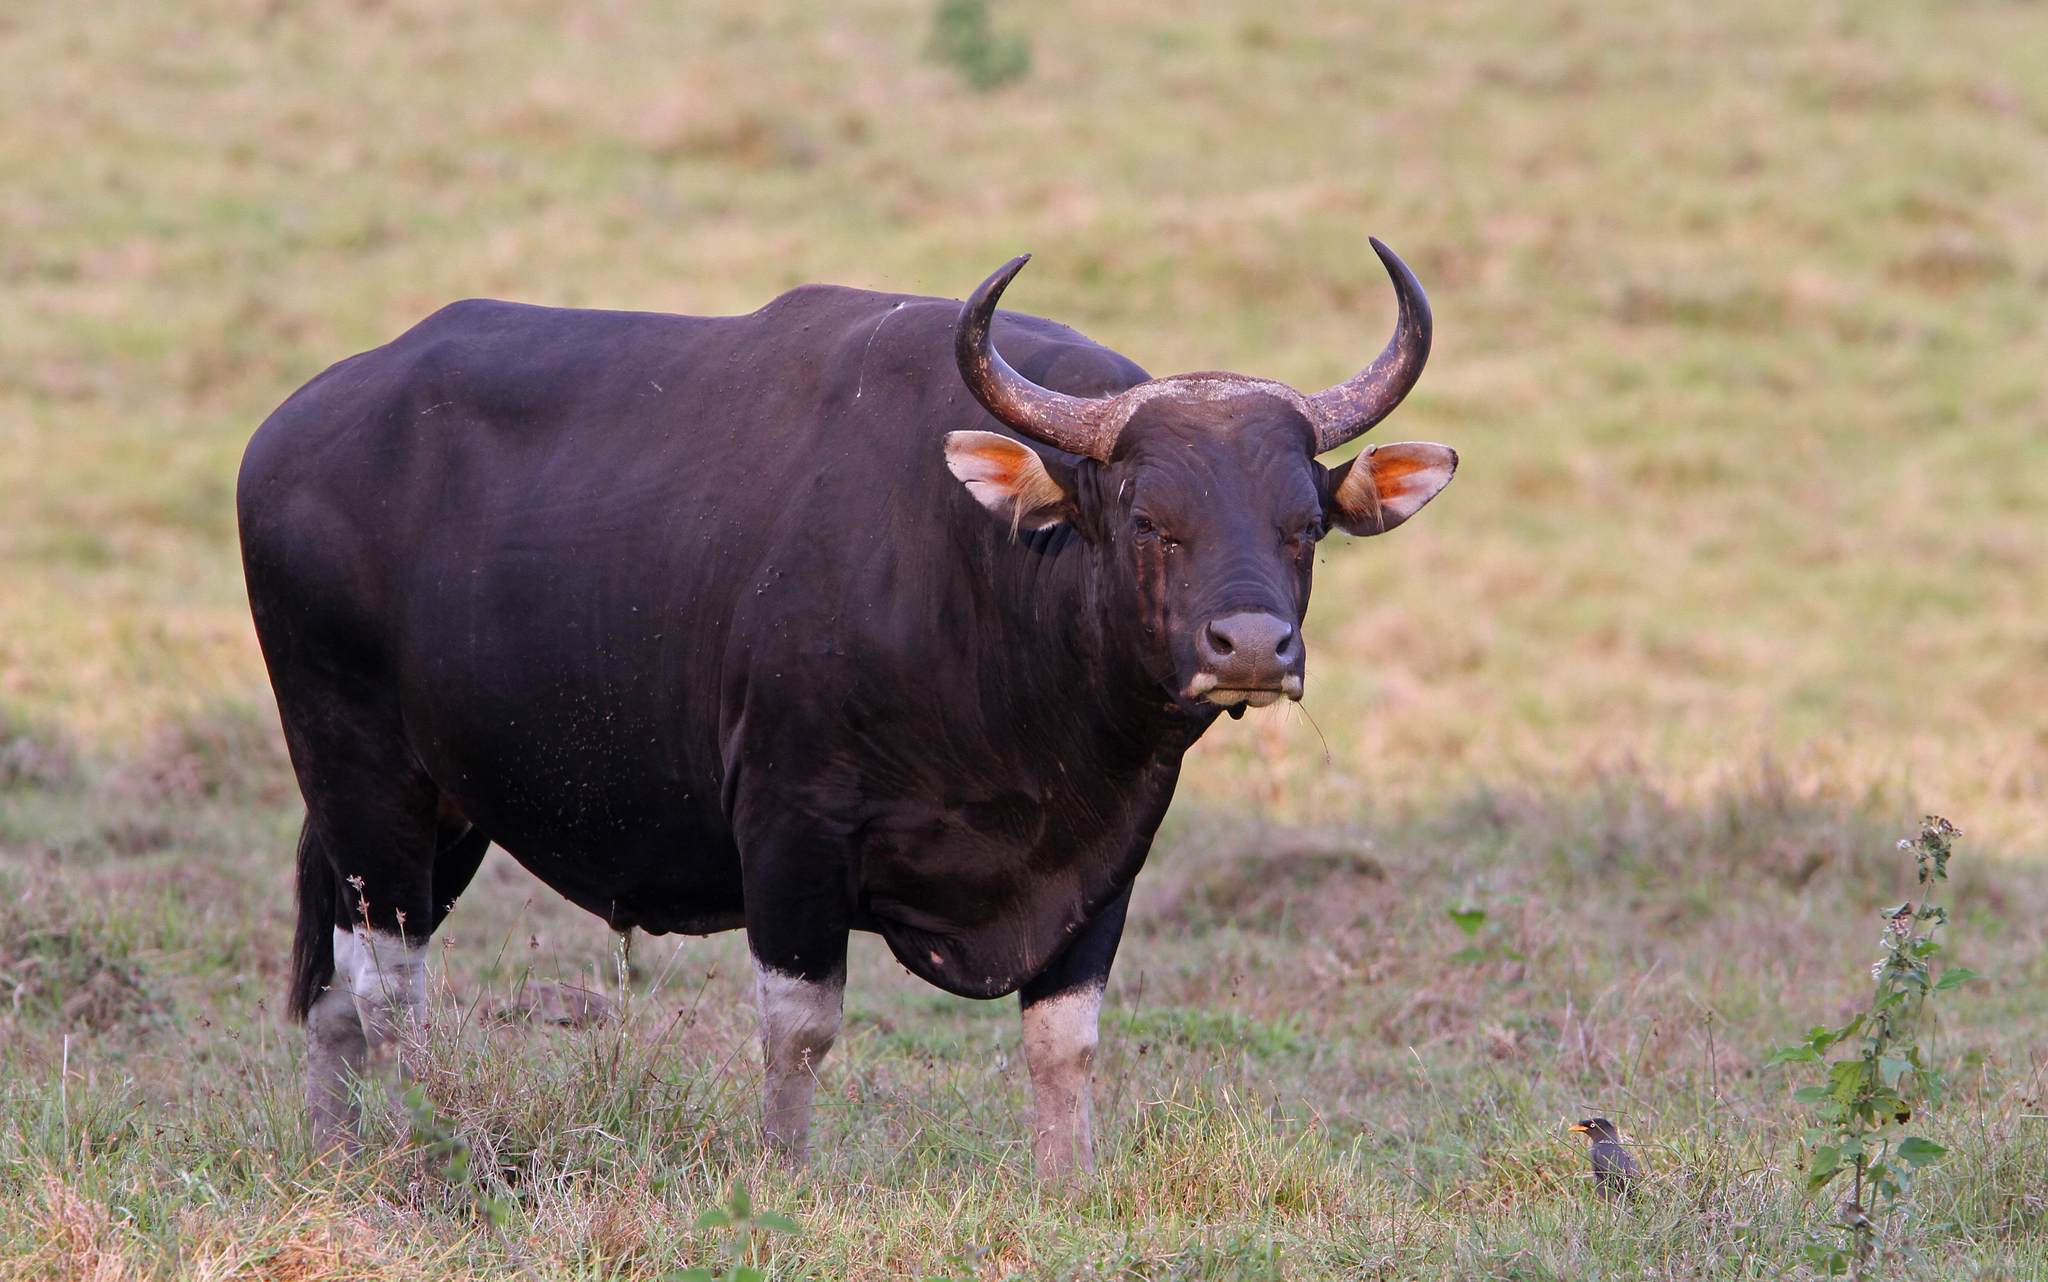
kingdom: Animalia
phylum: Chordata
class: Mammalia
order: Artiodactyla
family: Bovidae
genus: Bos
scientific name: Bos javanicus
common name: Banteng
